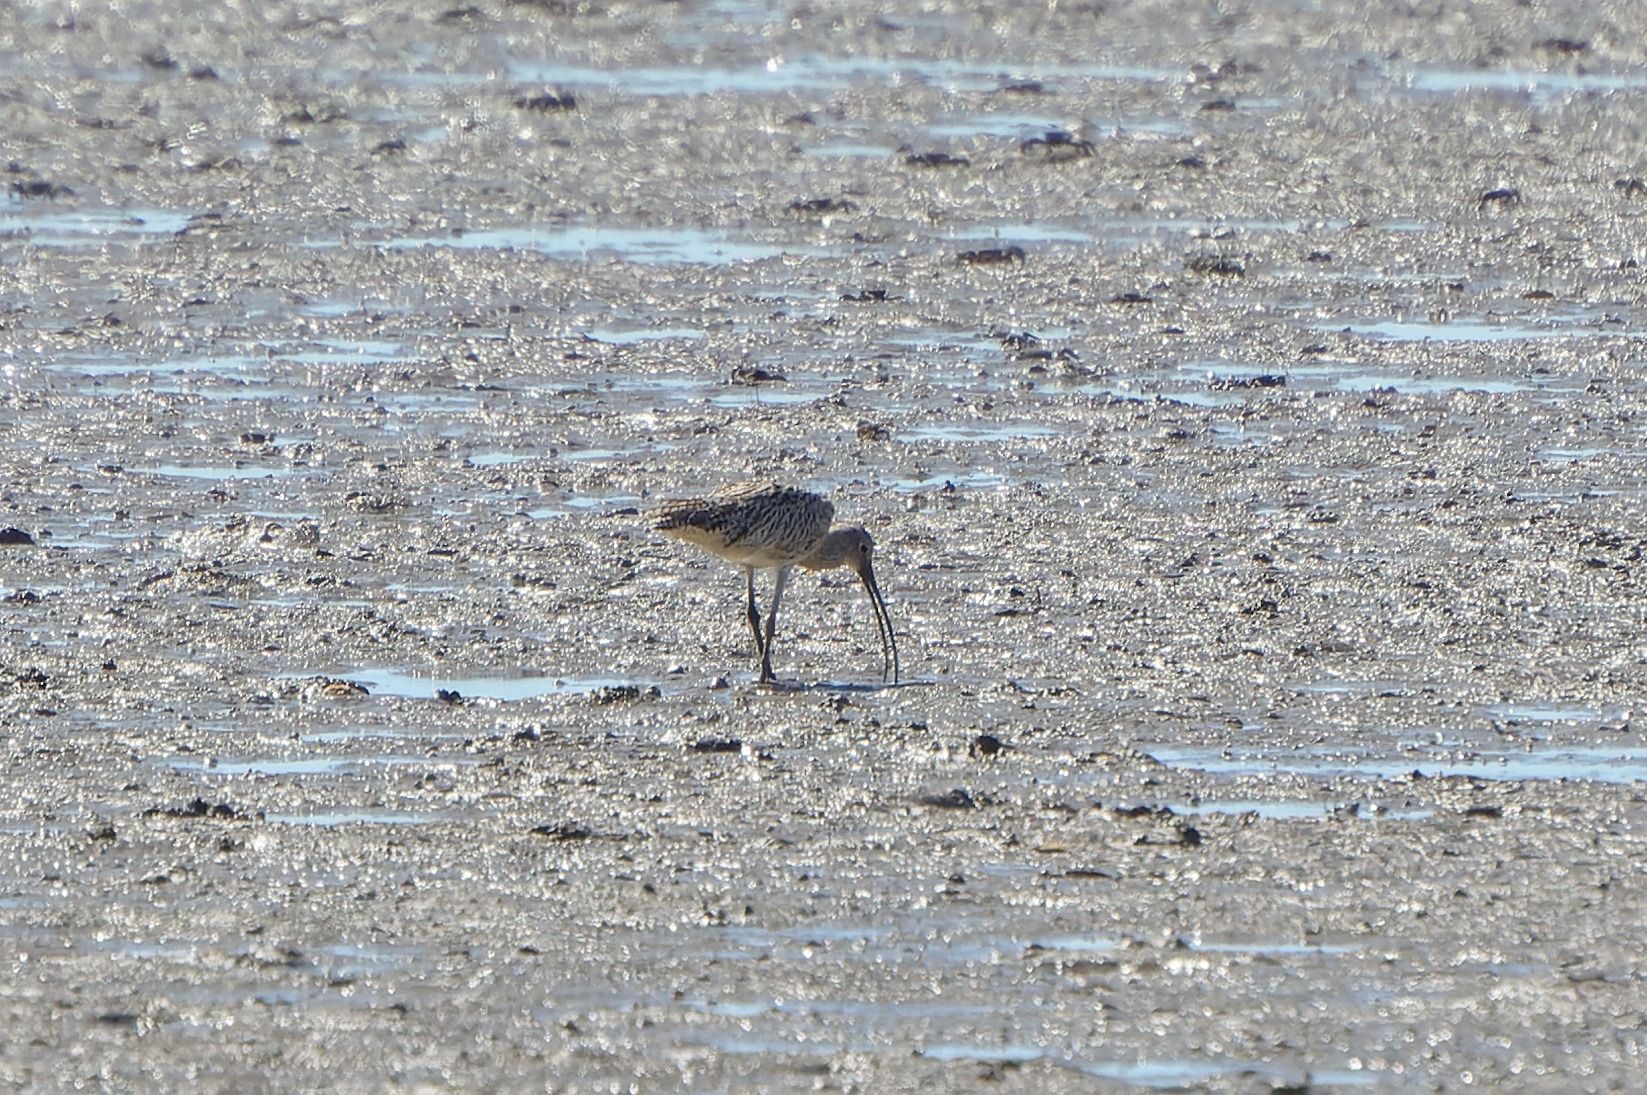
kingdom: Animalia
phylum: Chordata
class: Aves
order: Charadriiformes
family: Scolopacidae
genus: Numenius
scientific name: Numenius madagascariensis
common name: Far eastern curlew
